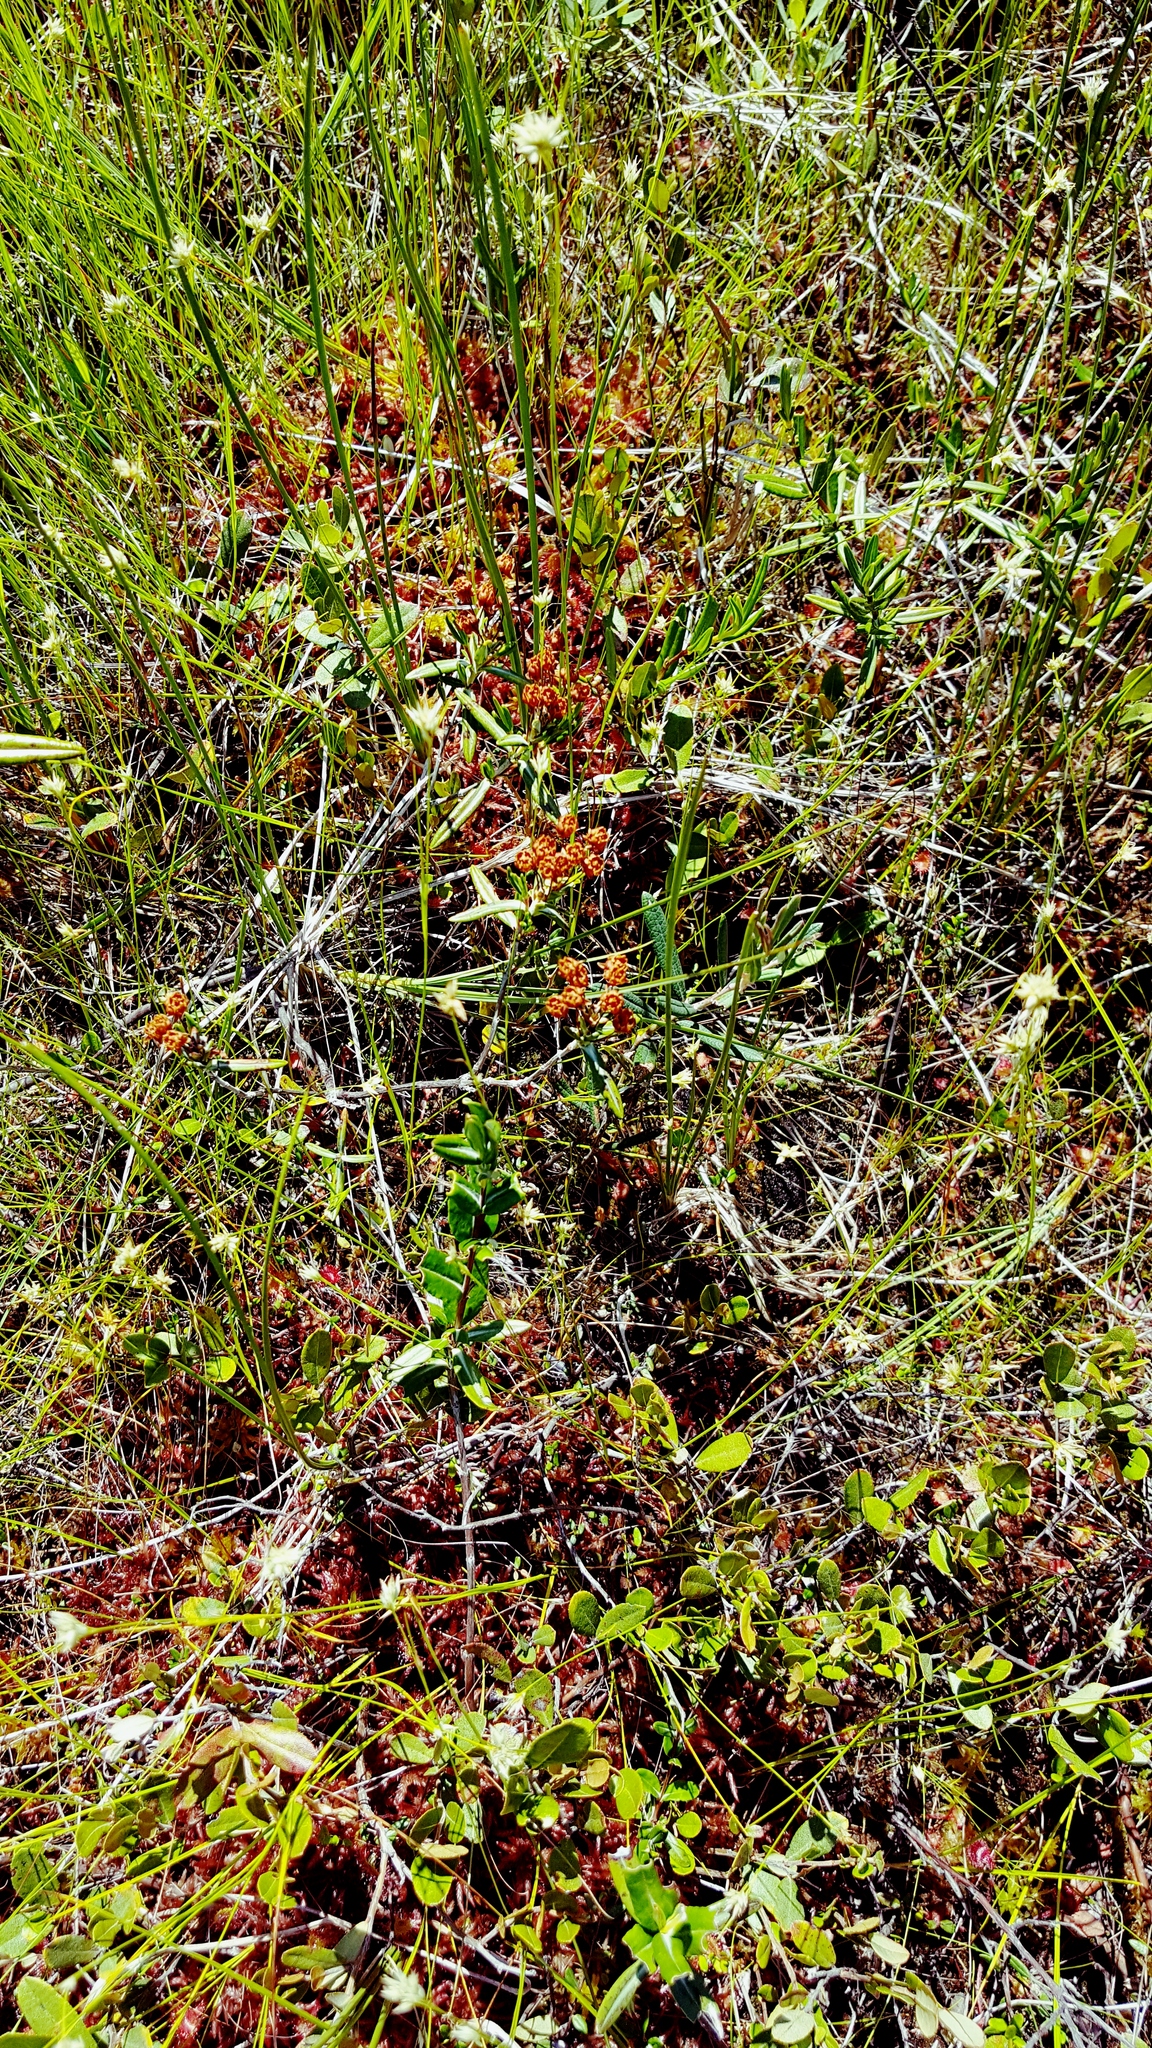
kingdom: Plantae
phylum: Tracheophyta
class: Magnoliopsida
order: Ericales
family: Ericaceae
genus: Kalmia
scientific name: Kalmia polifolia
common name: Bog-laurel
